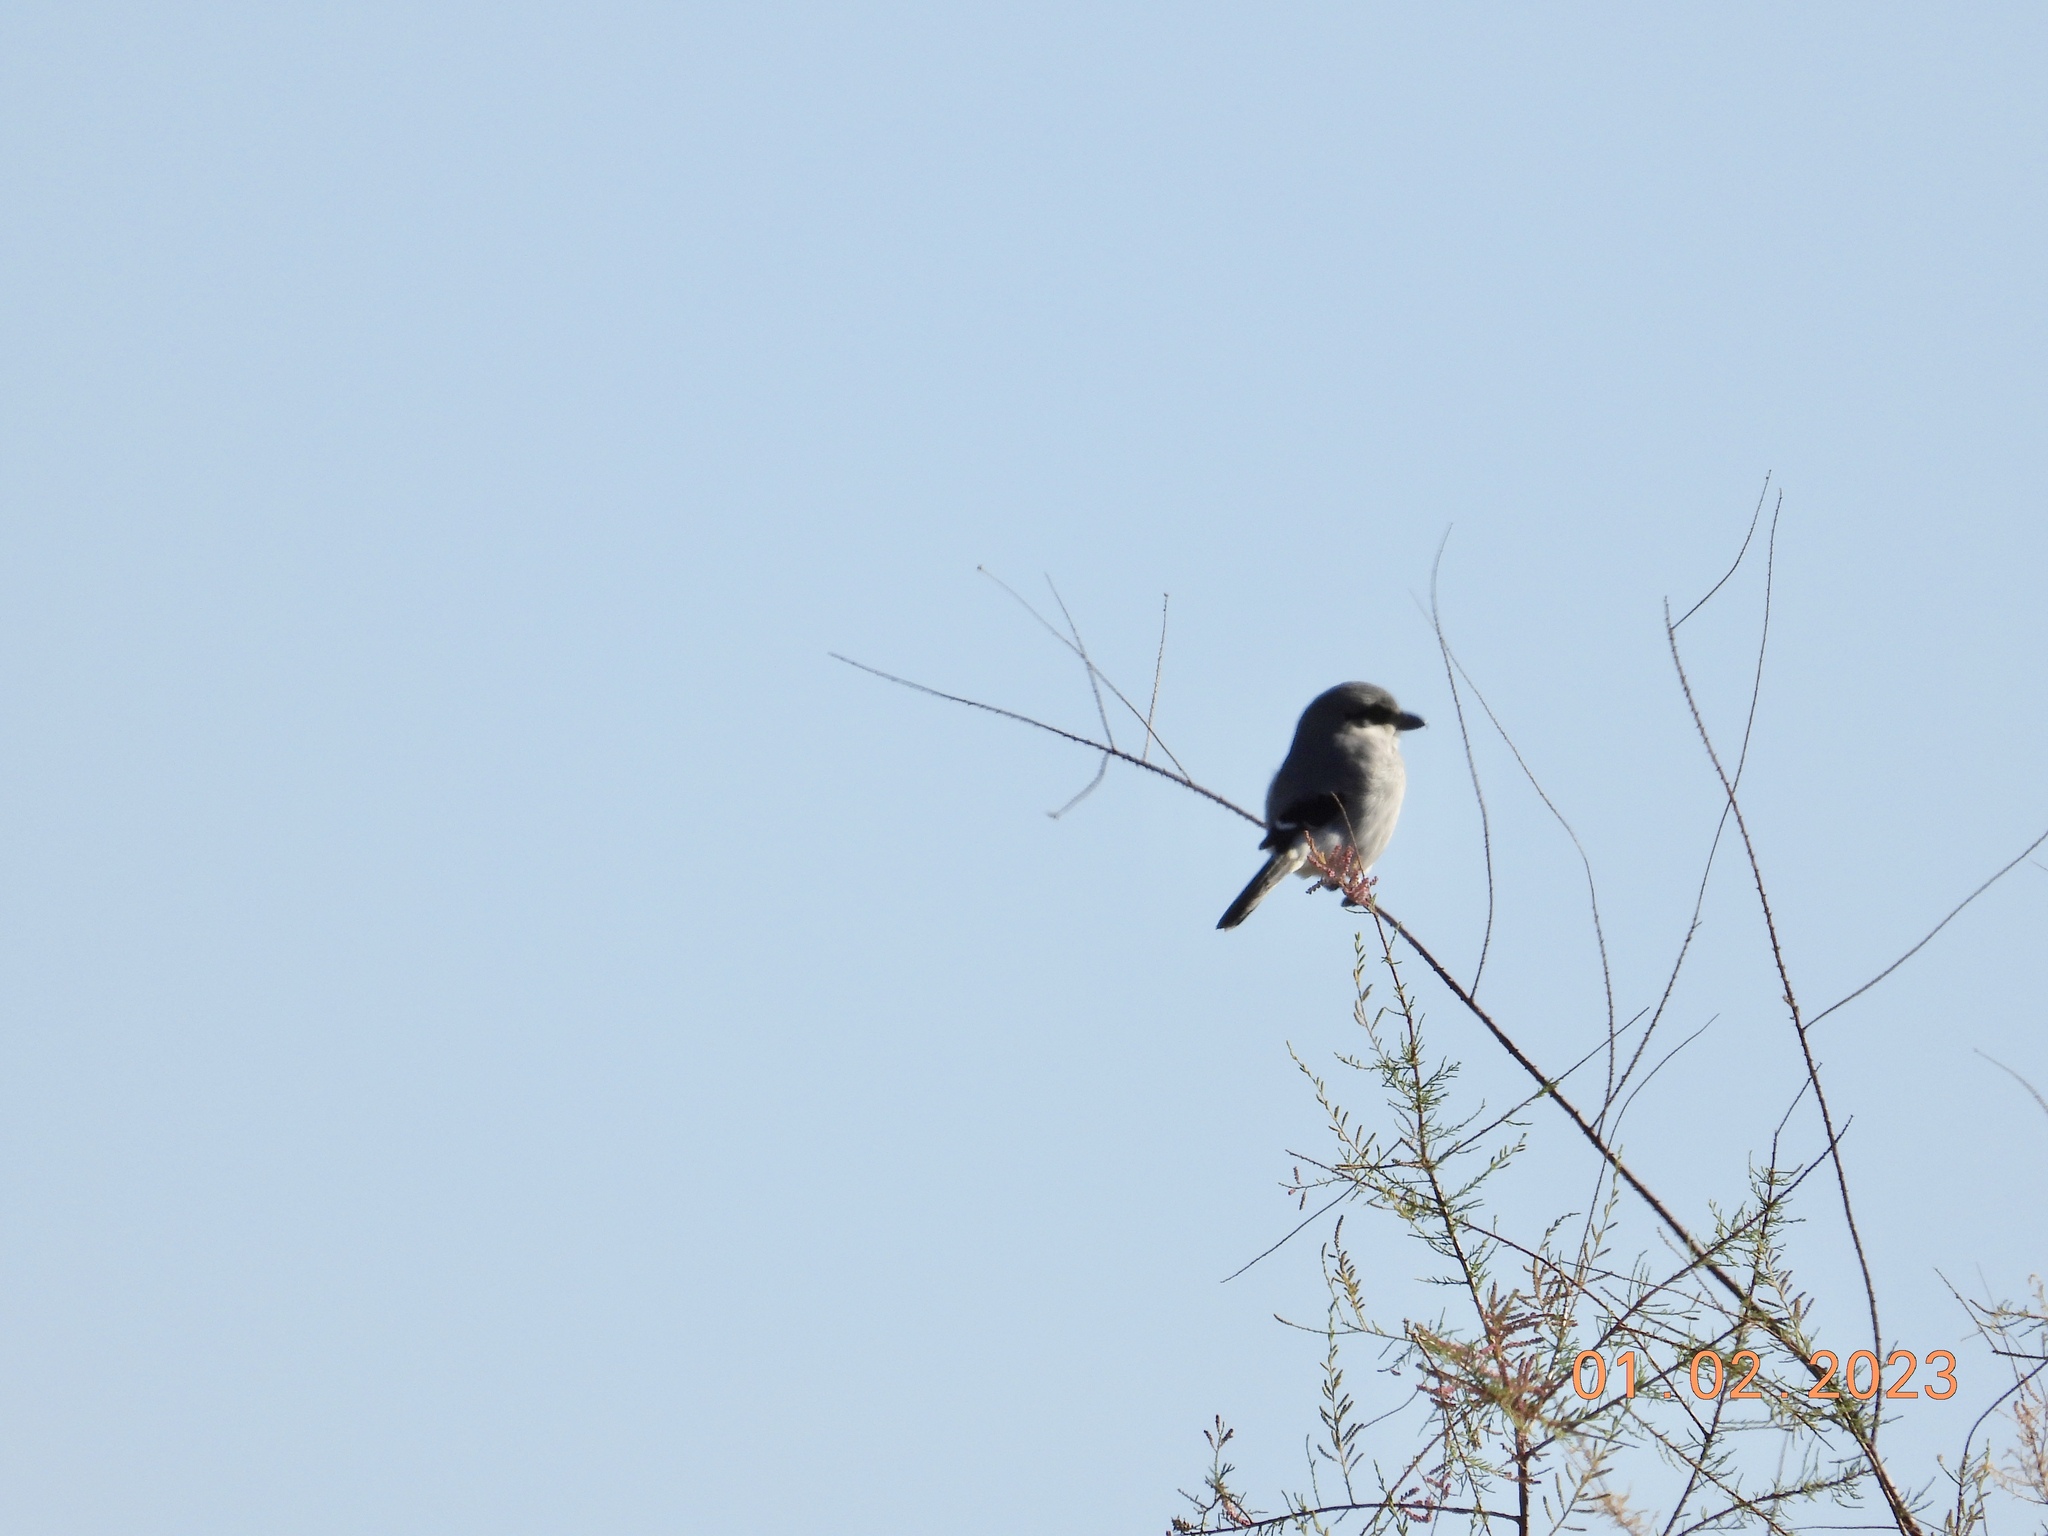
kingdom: Animalia
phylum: Chordata
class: Aves
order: Passeriformes
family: Laniidae
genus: Lanius
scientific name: Lanius ludovicianus
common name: Loggerhead shrike
